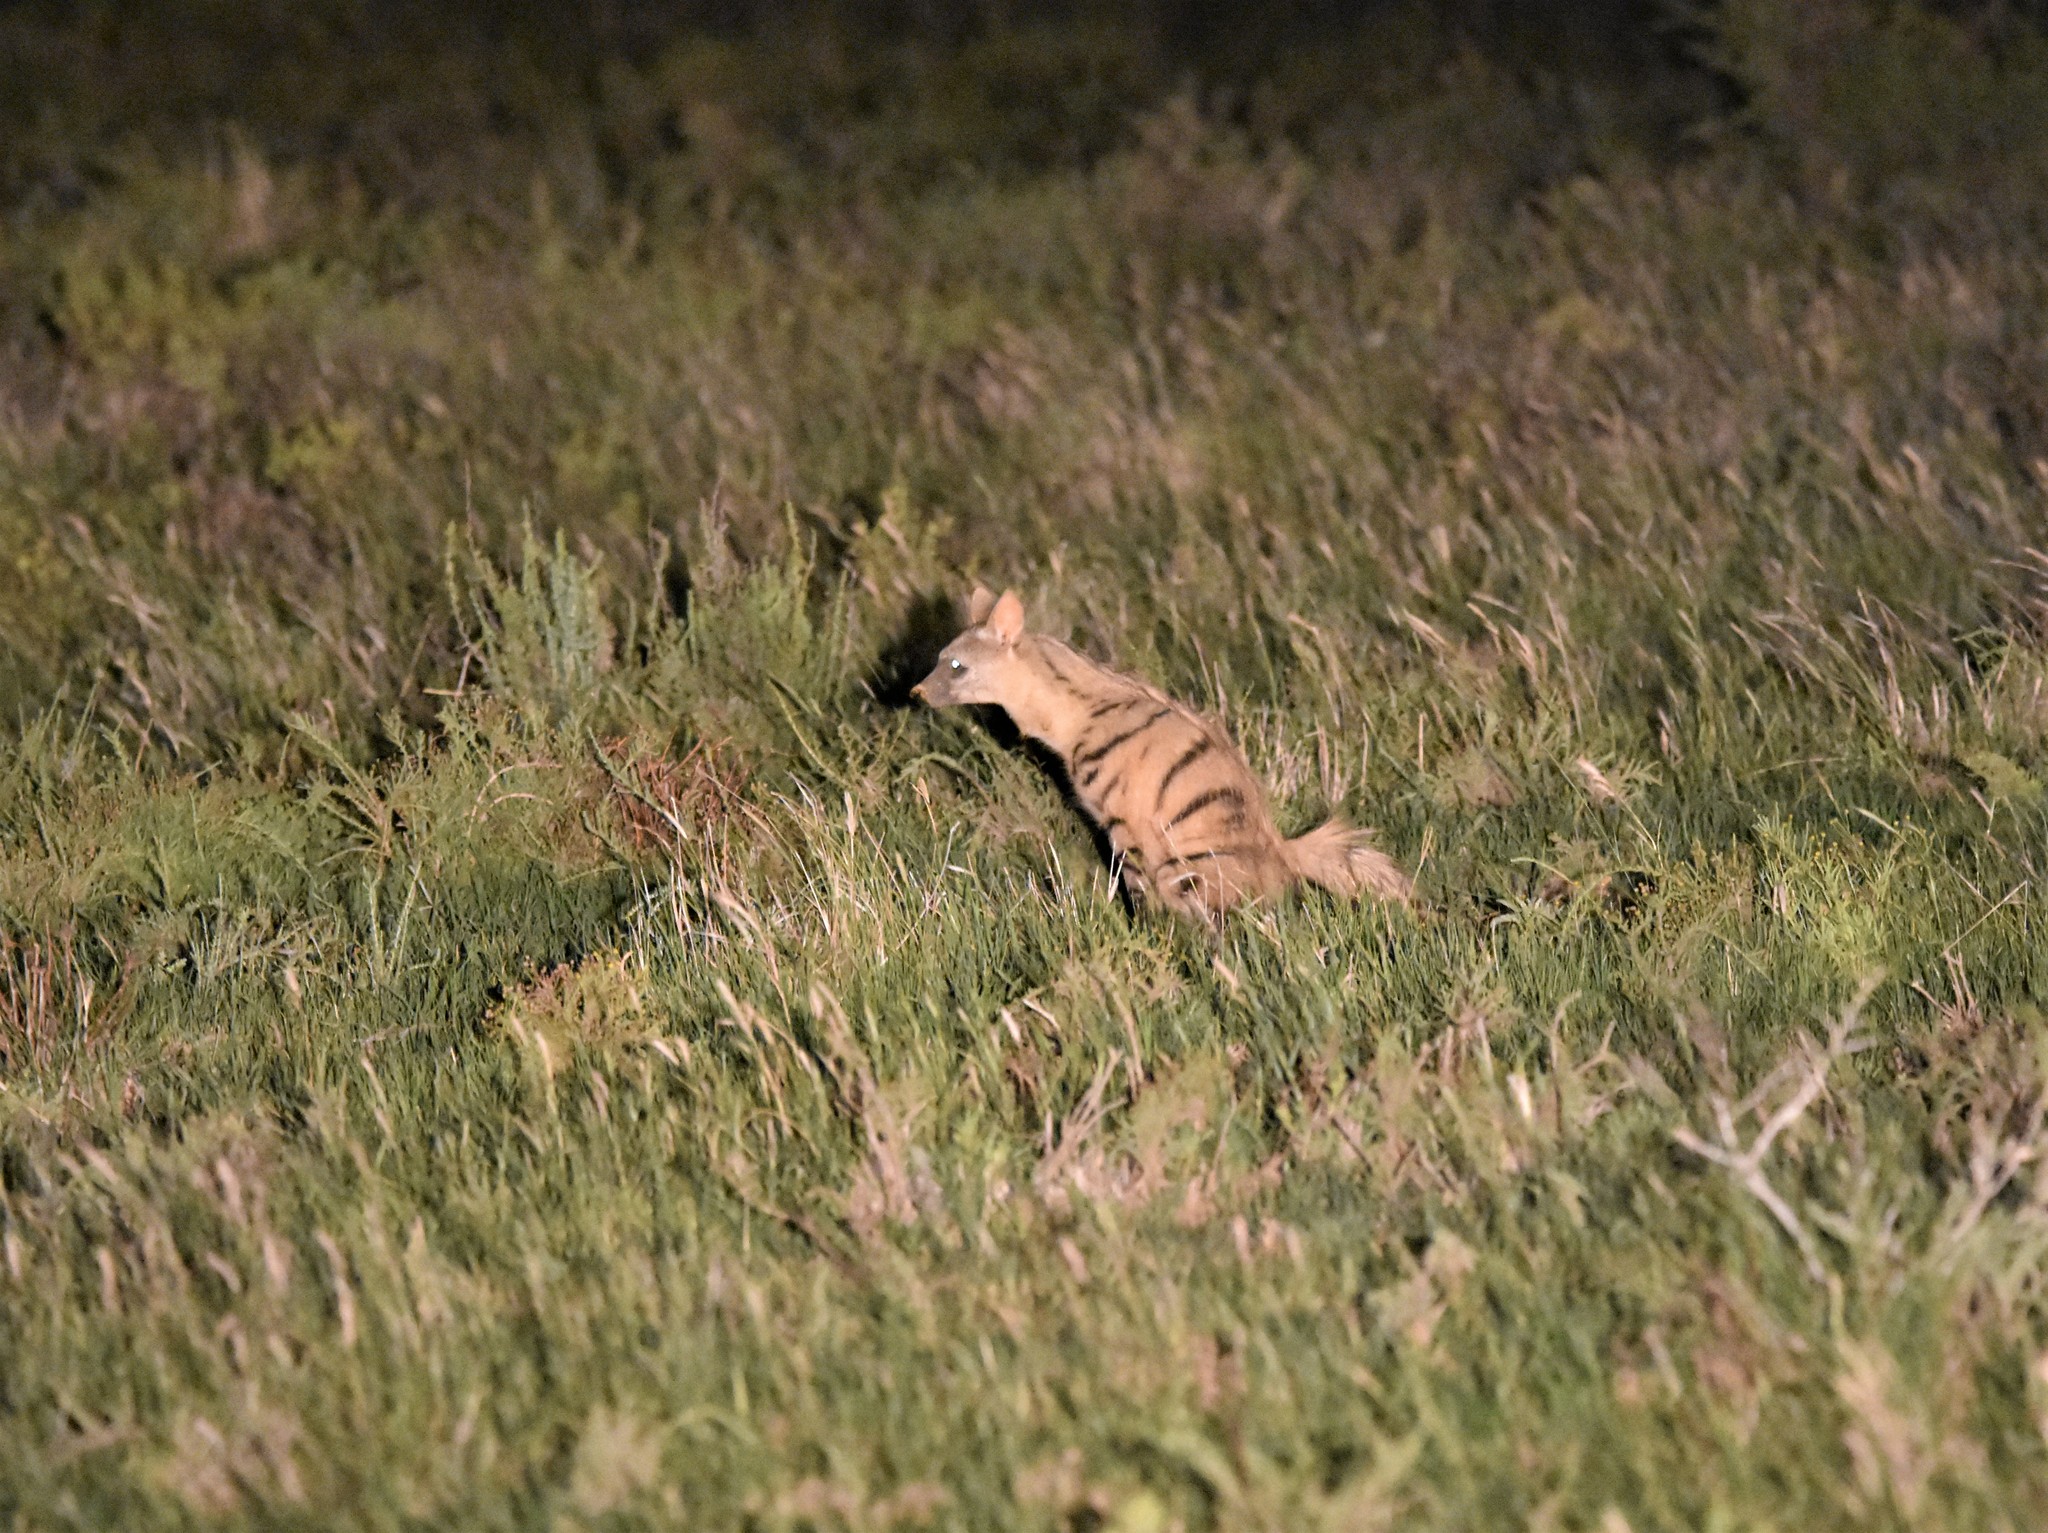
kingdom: Animalia
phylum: Chordata
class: Mammalia
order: Carnivora
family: Hyaenidae
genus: Proteles
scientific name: Proteles cristata
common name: Aardwolf
